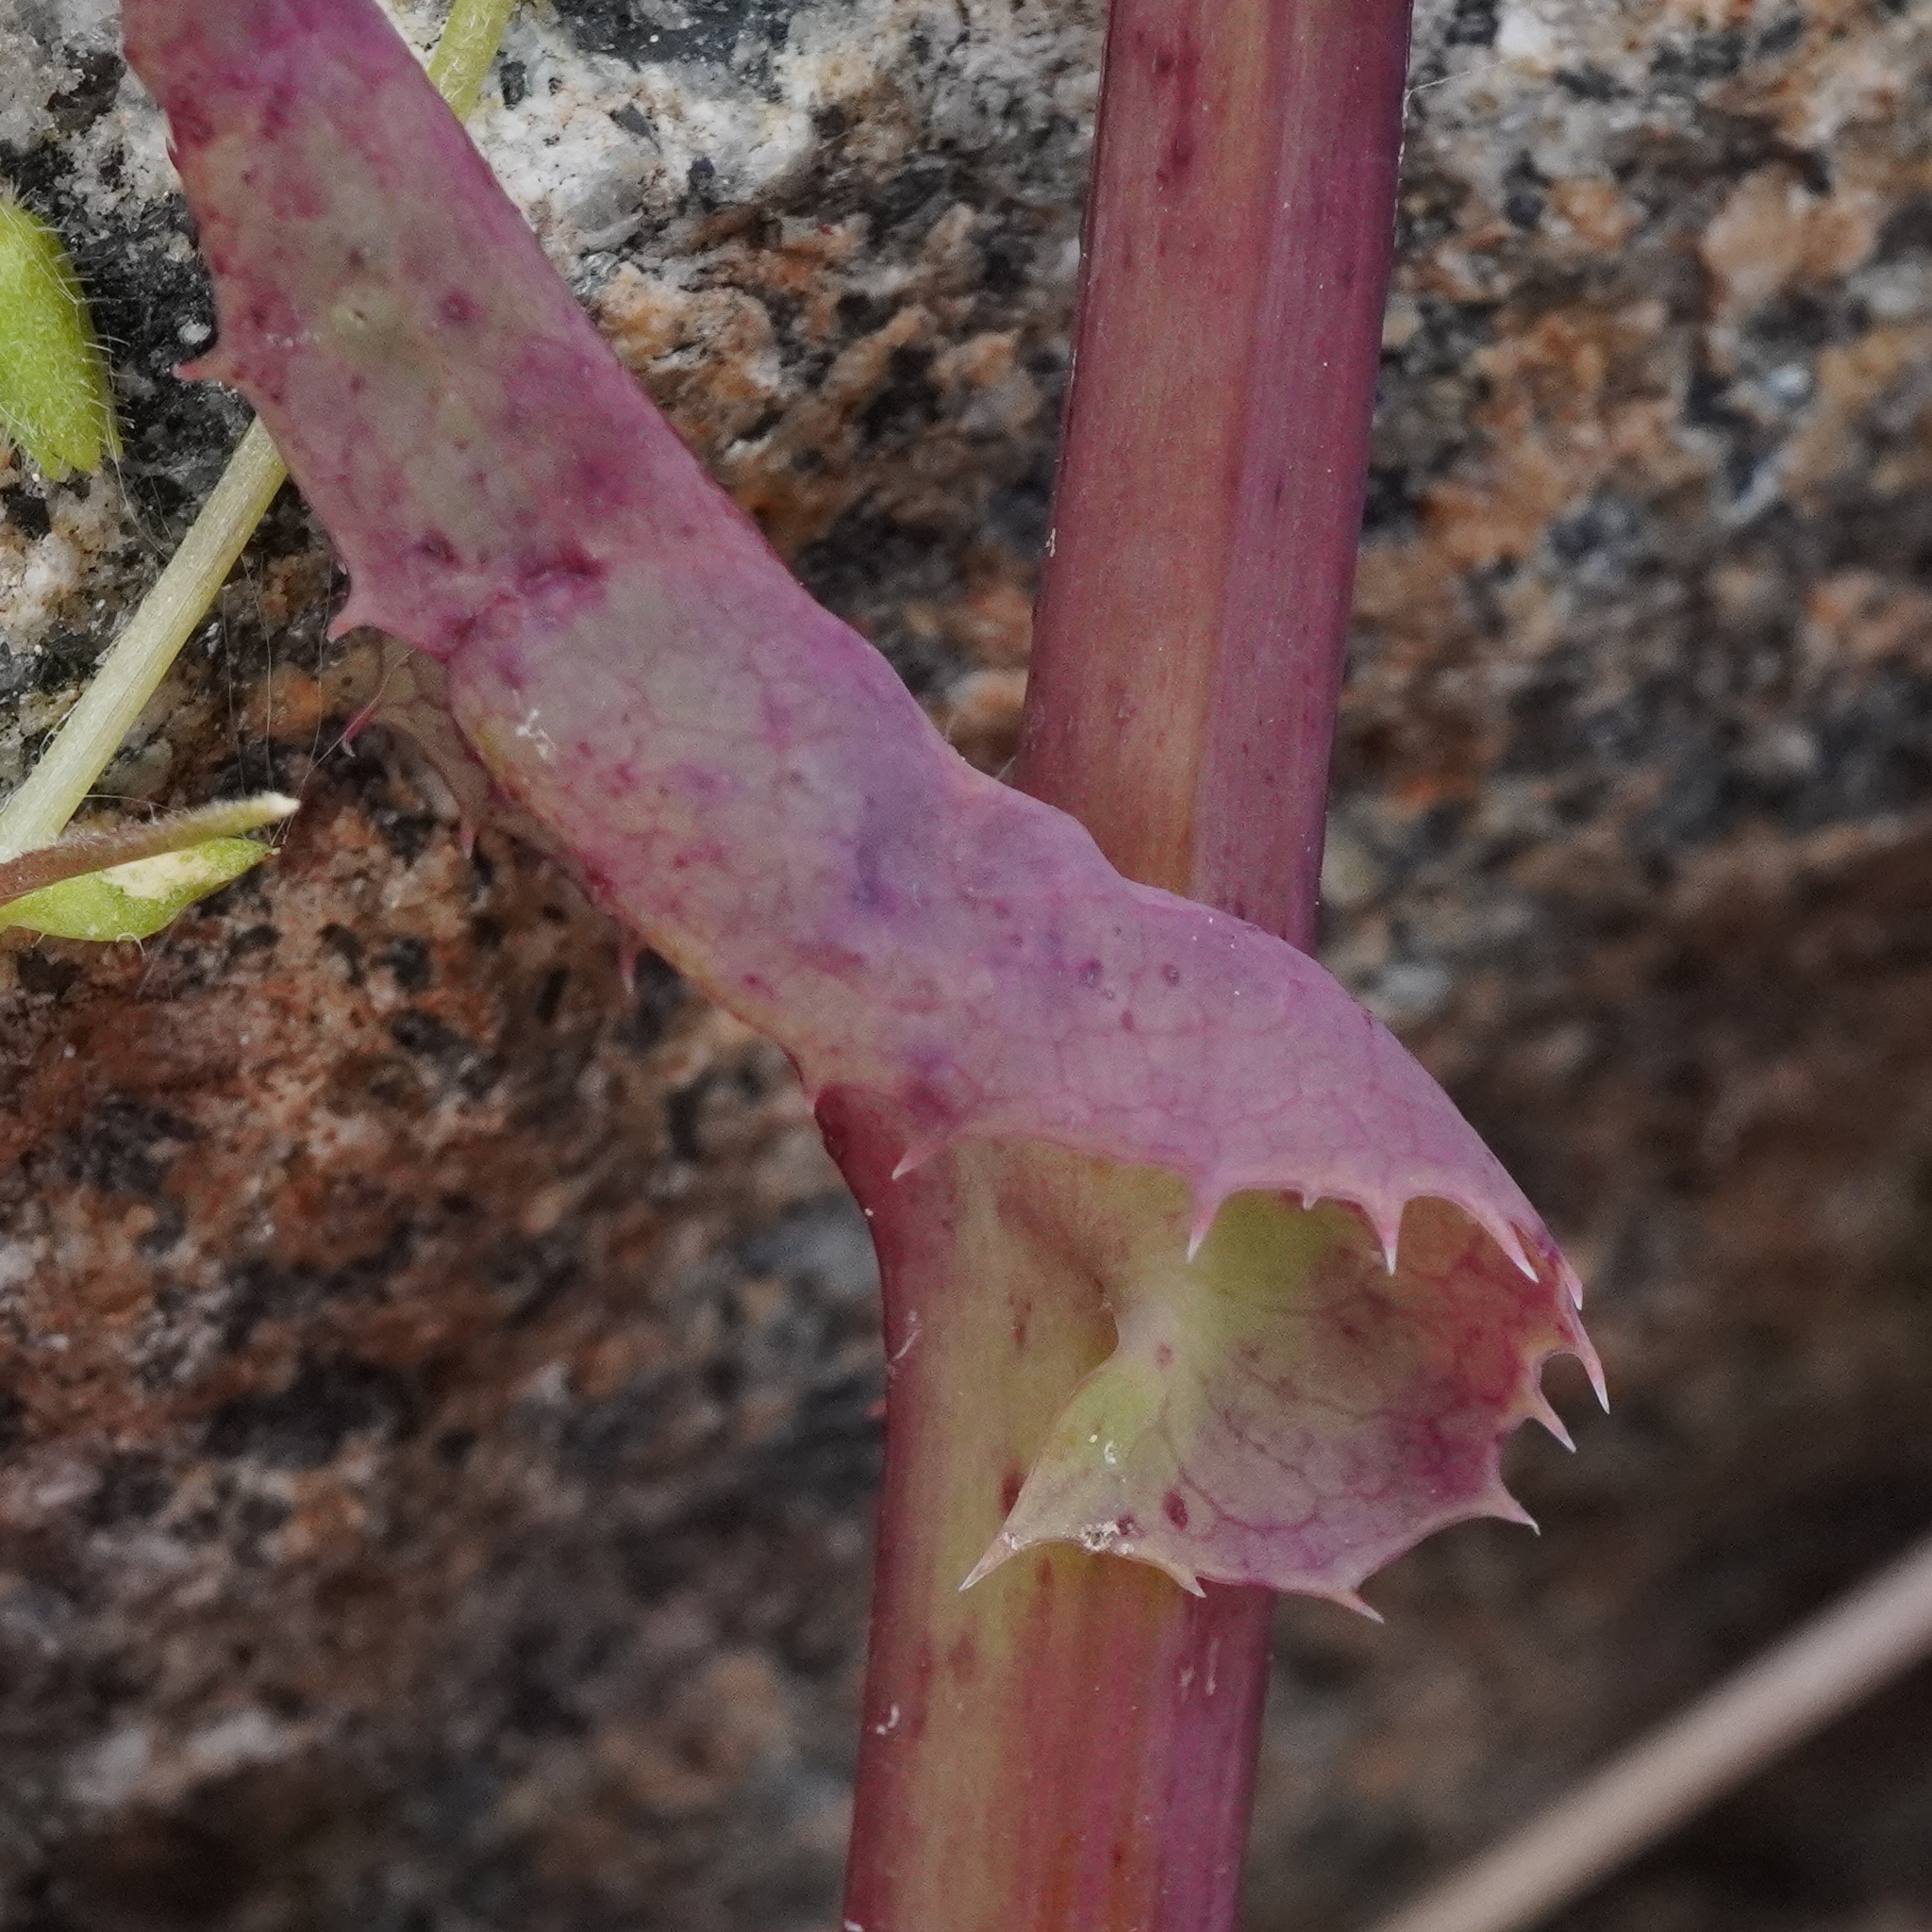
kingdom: Plantae
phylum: Tracheophyta
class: Magnoliopsida
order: Asterales
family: Asteraceae
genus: Sonchus
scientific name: Sonchus oleraceus
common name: Common sowthistle
